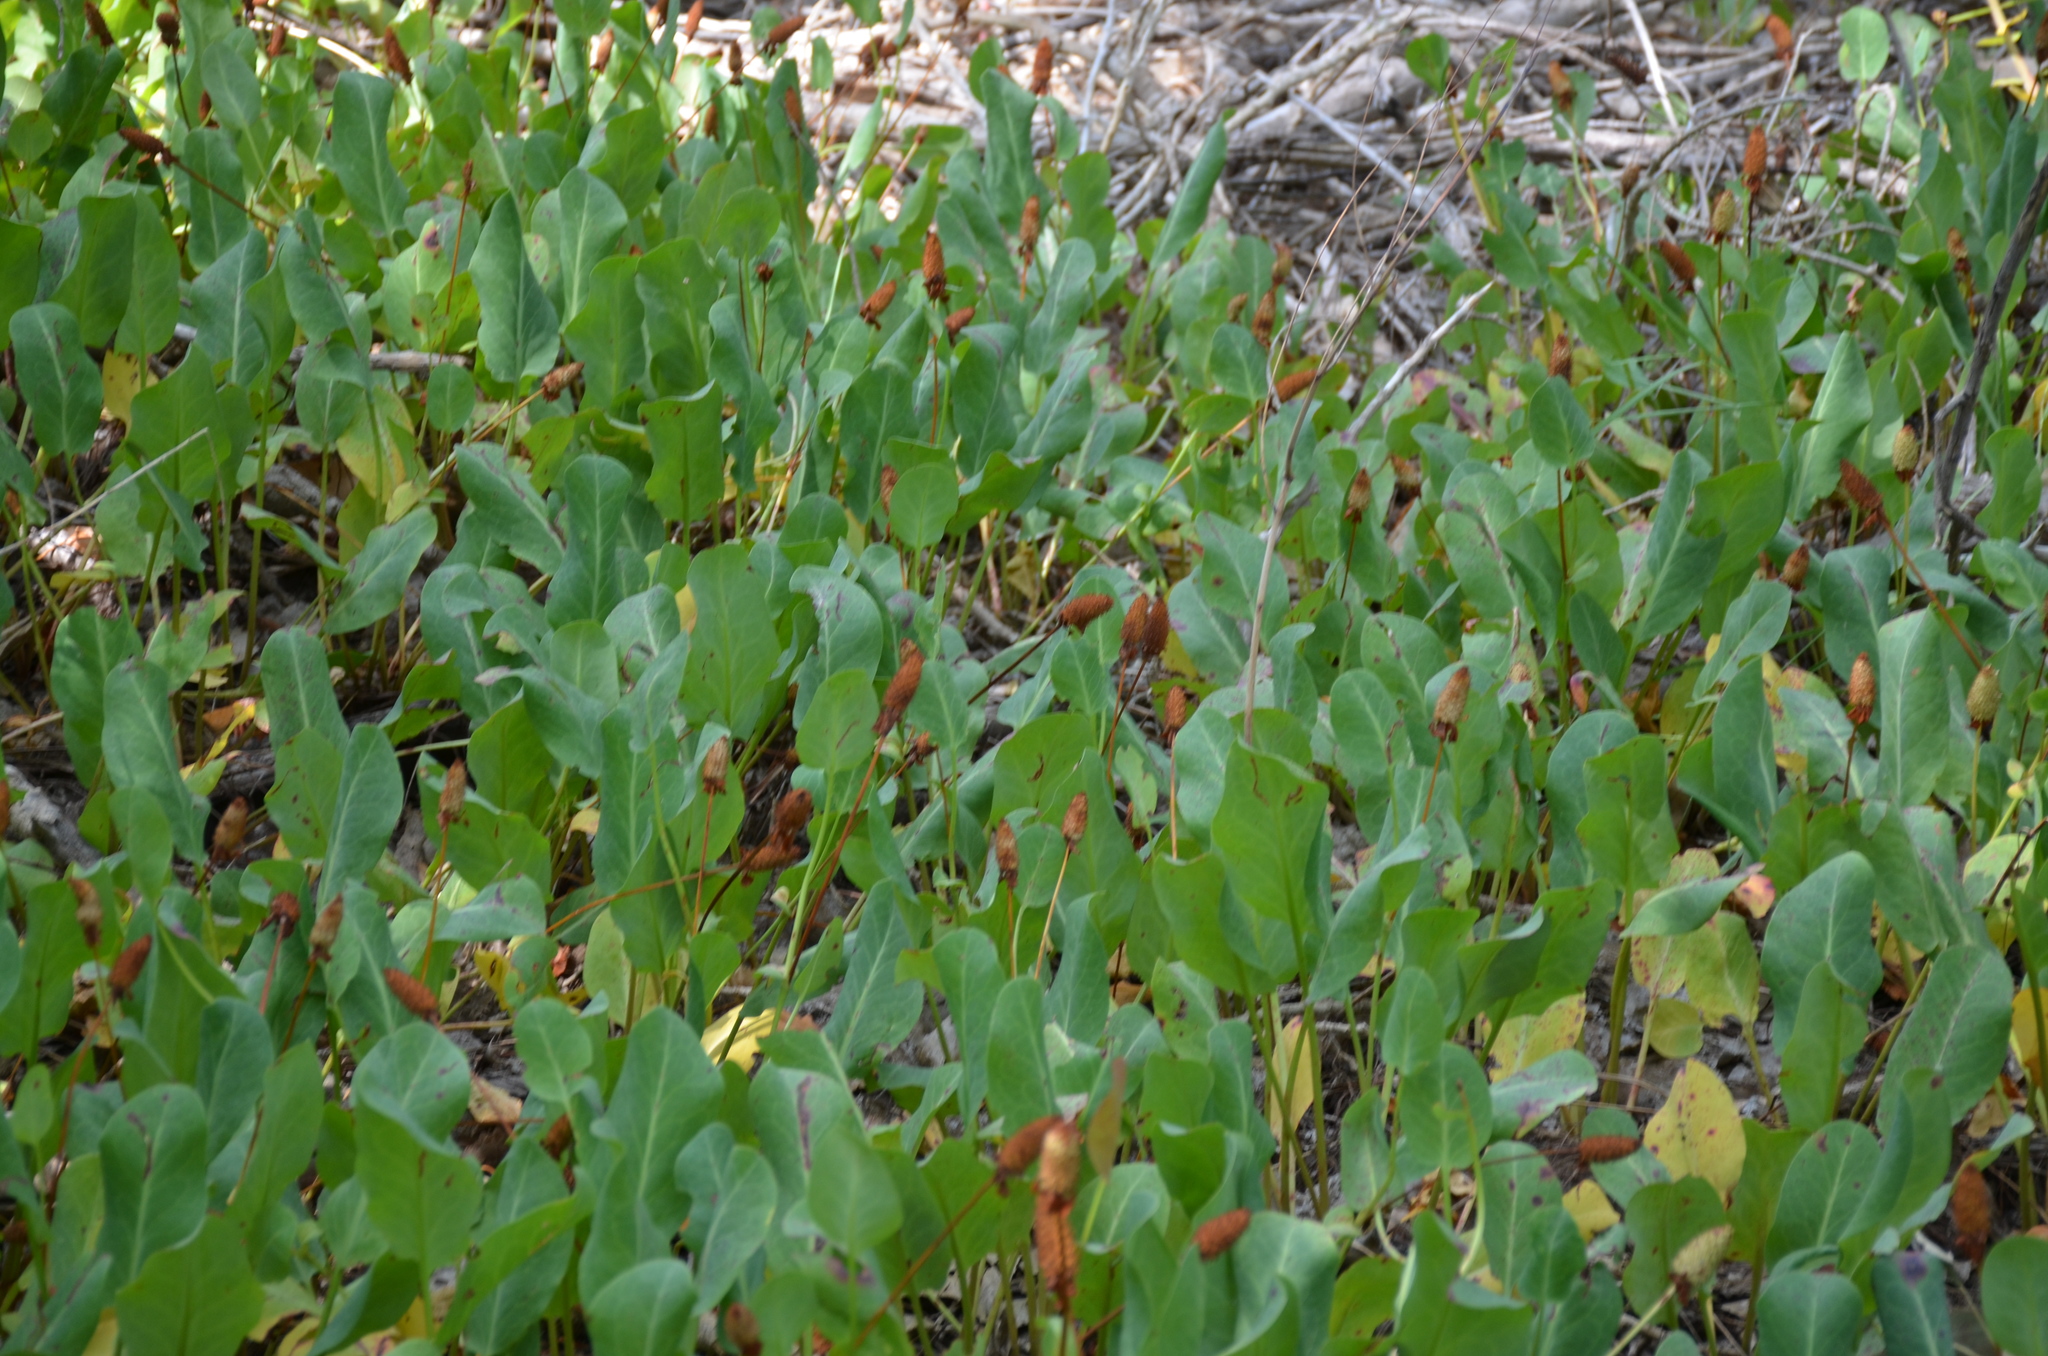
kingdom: Plantae
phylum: Tracheophyta
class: Magnoliopsida
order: Piperales
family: Saururaceae
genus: Anemopsis
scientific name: Anemopsis californica
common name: Apache-beads
